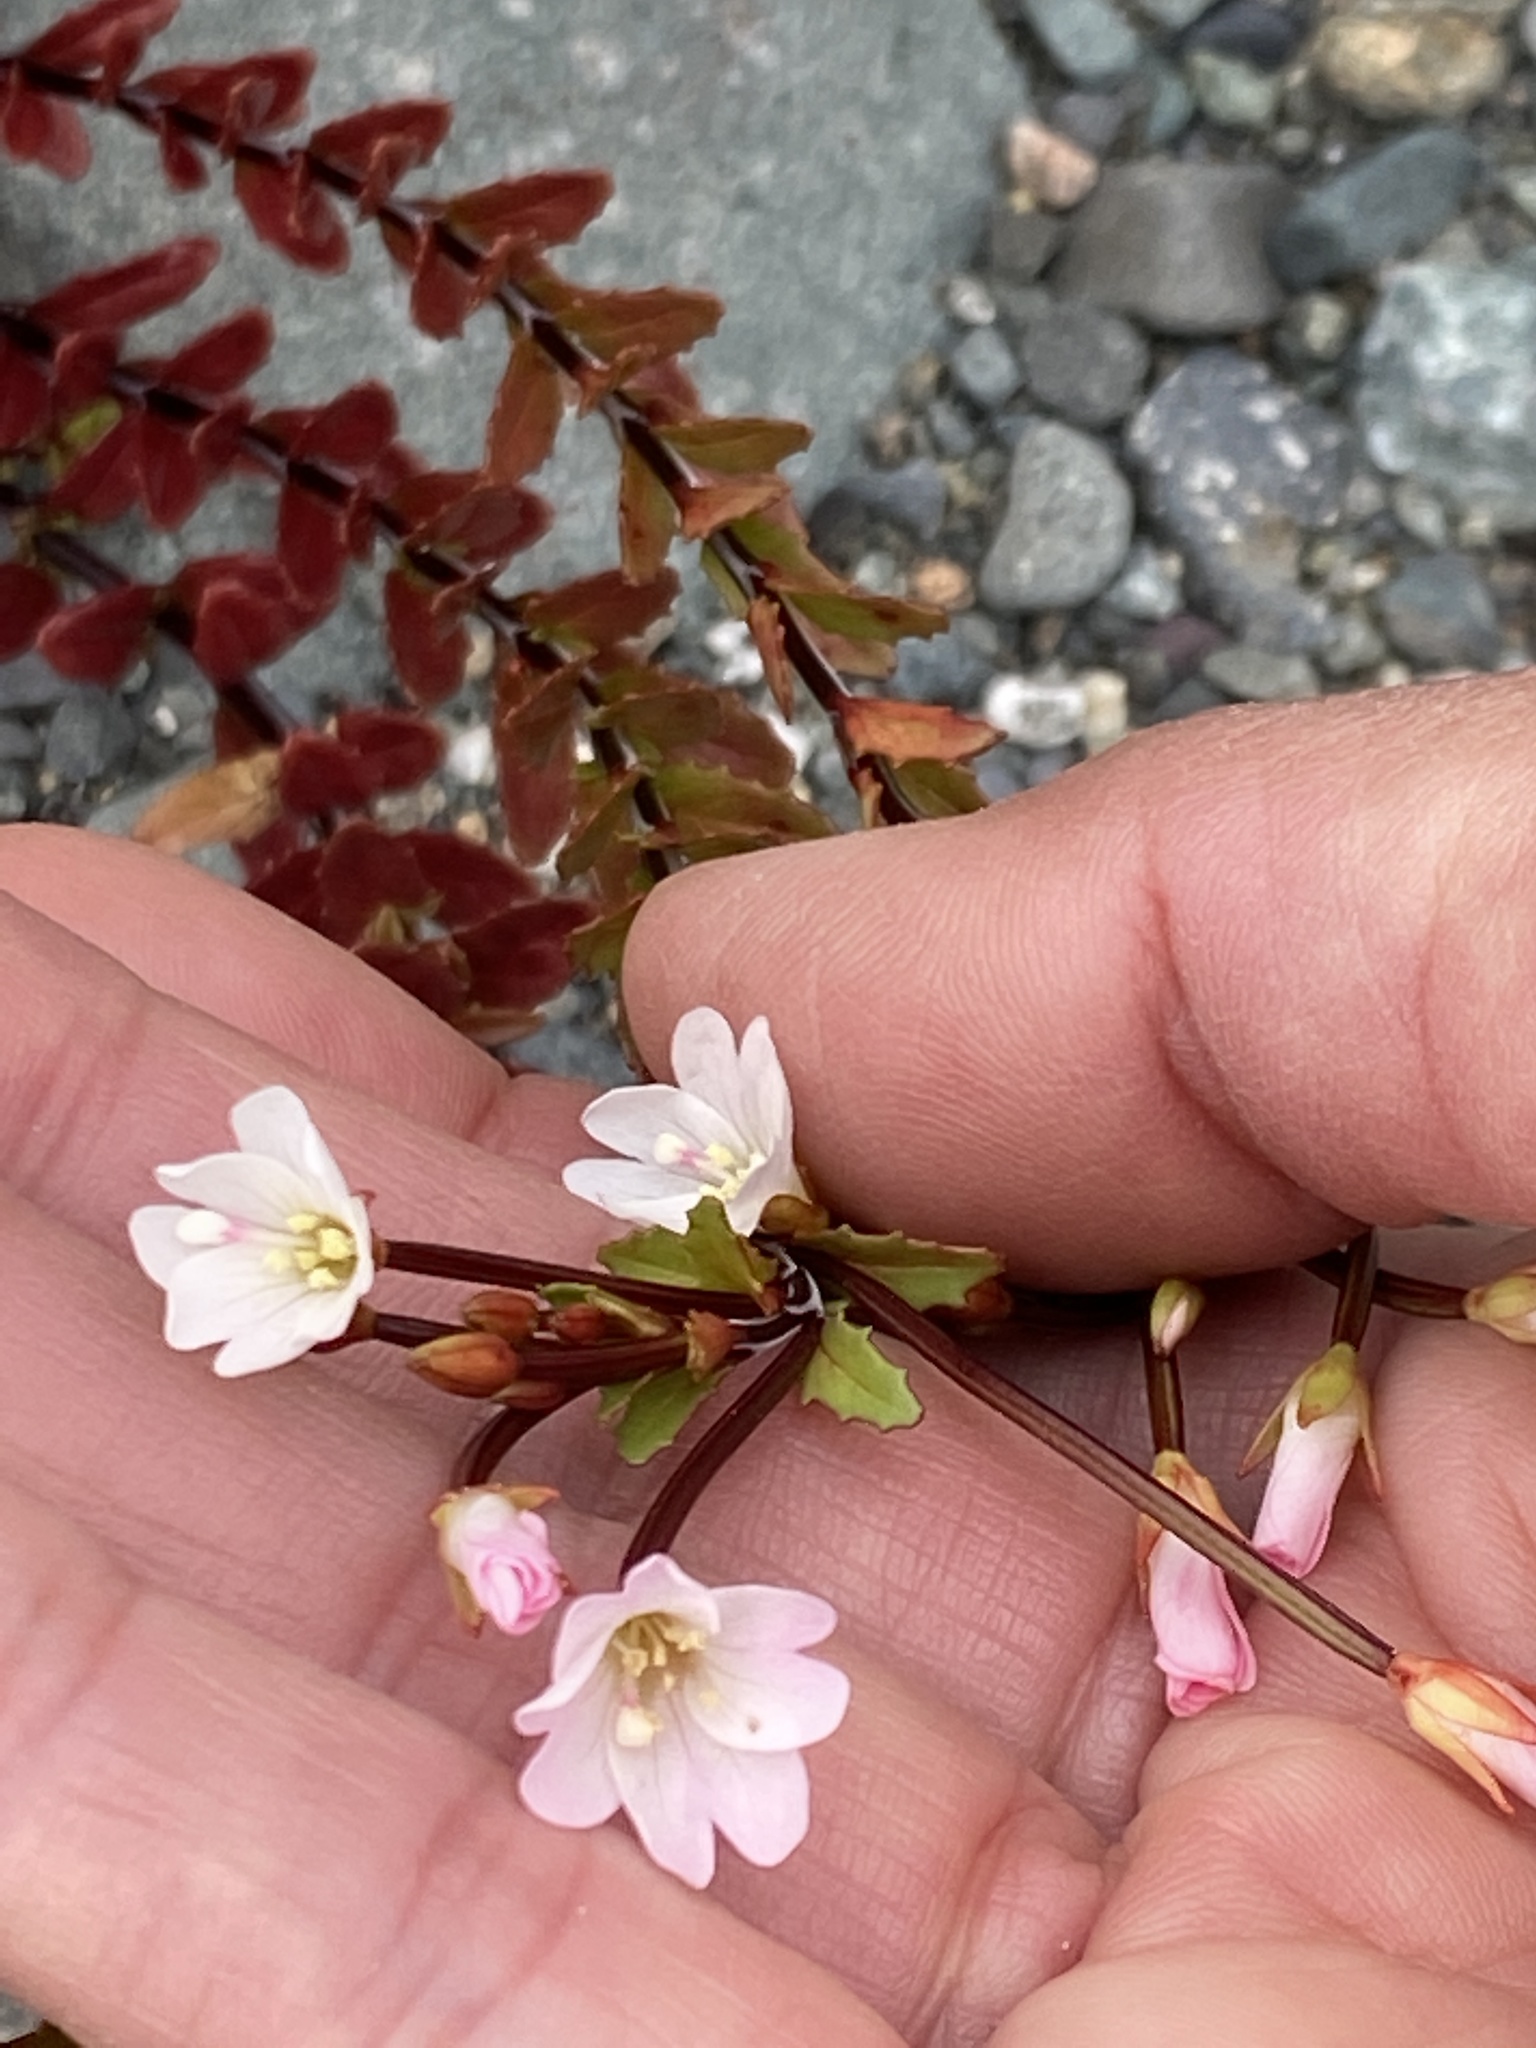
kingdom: Plantae
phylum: Tracheophyta
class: Magnoliopsida
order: Myrtales
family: Onagraceae
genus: Epilobium
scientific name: Epilobium glabellum
